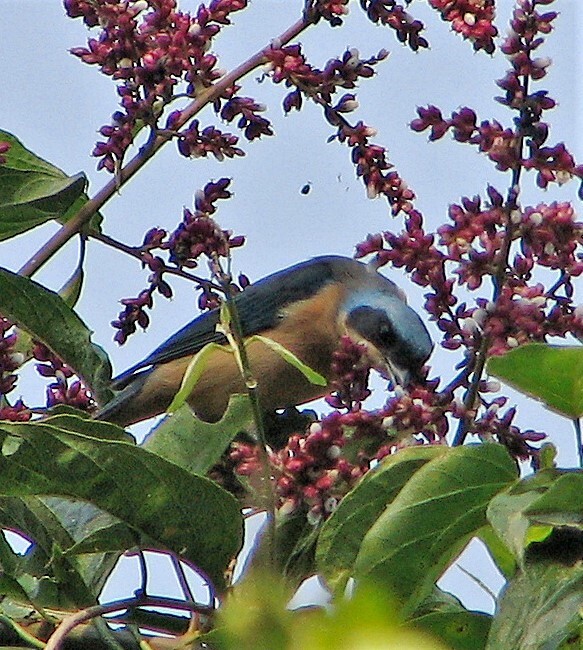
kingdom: Animalia
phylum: Chordata
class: Aves
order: Passeriformes
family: Thraupidae
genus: Pipraeidea
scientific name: Pipraeidea melanonota
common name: Fawn-breasted tanager
